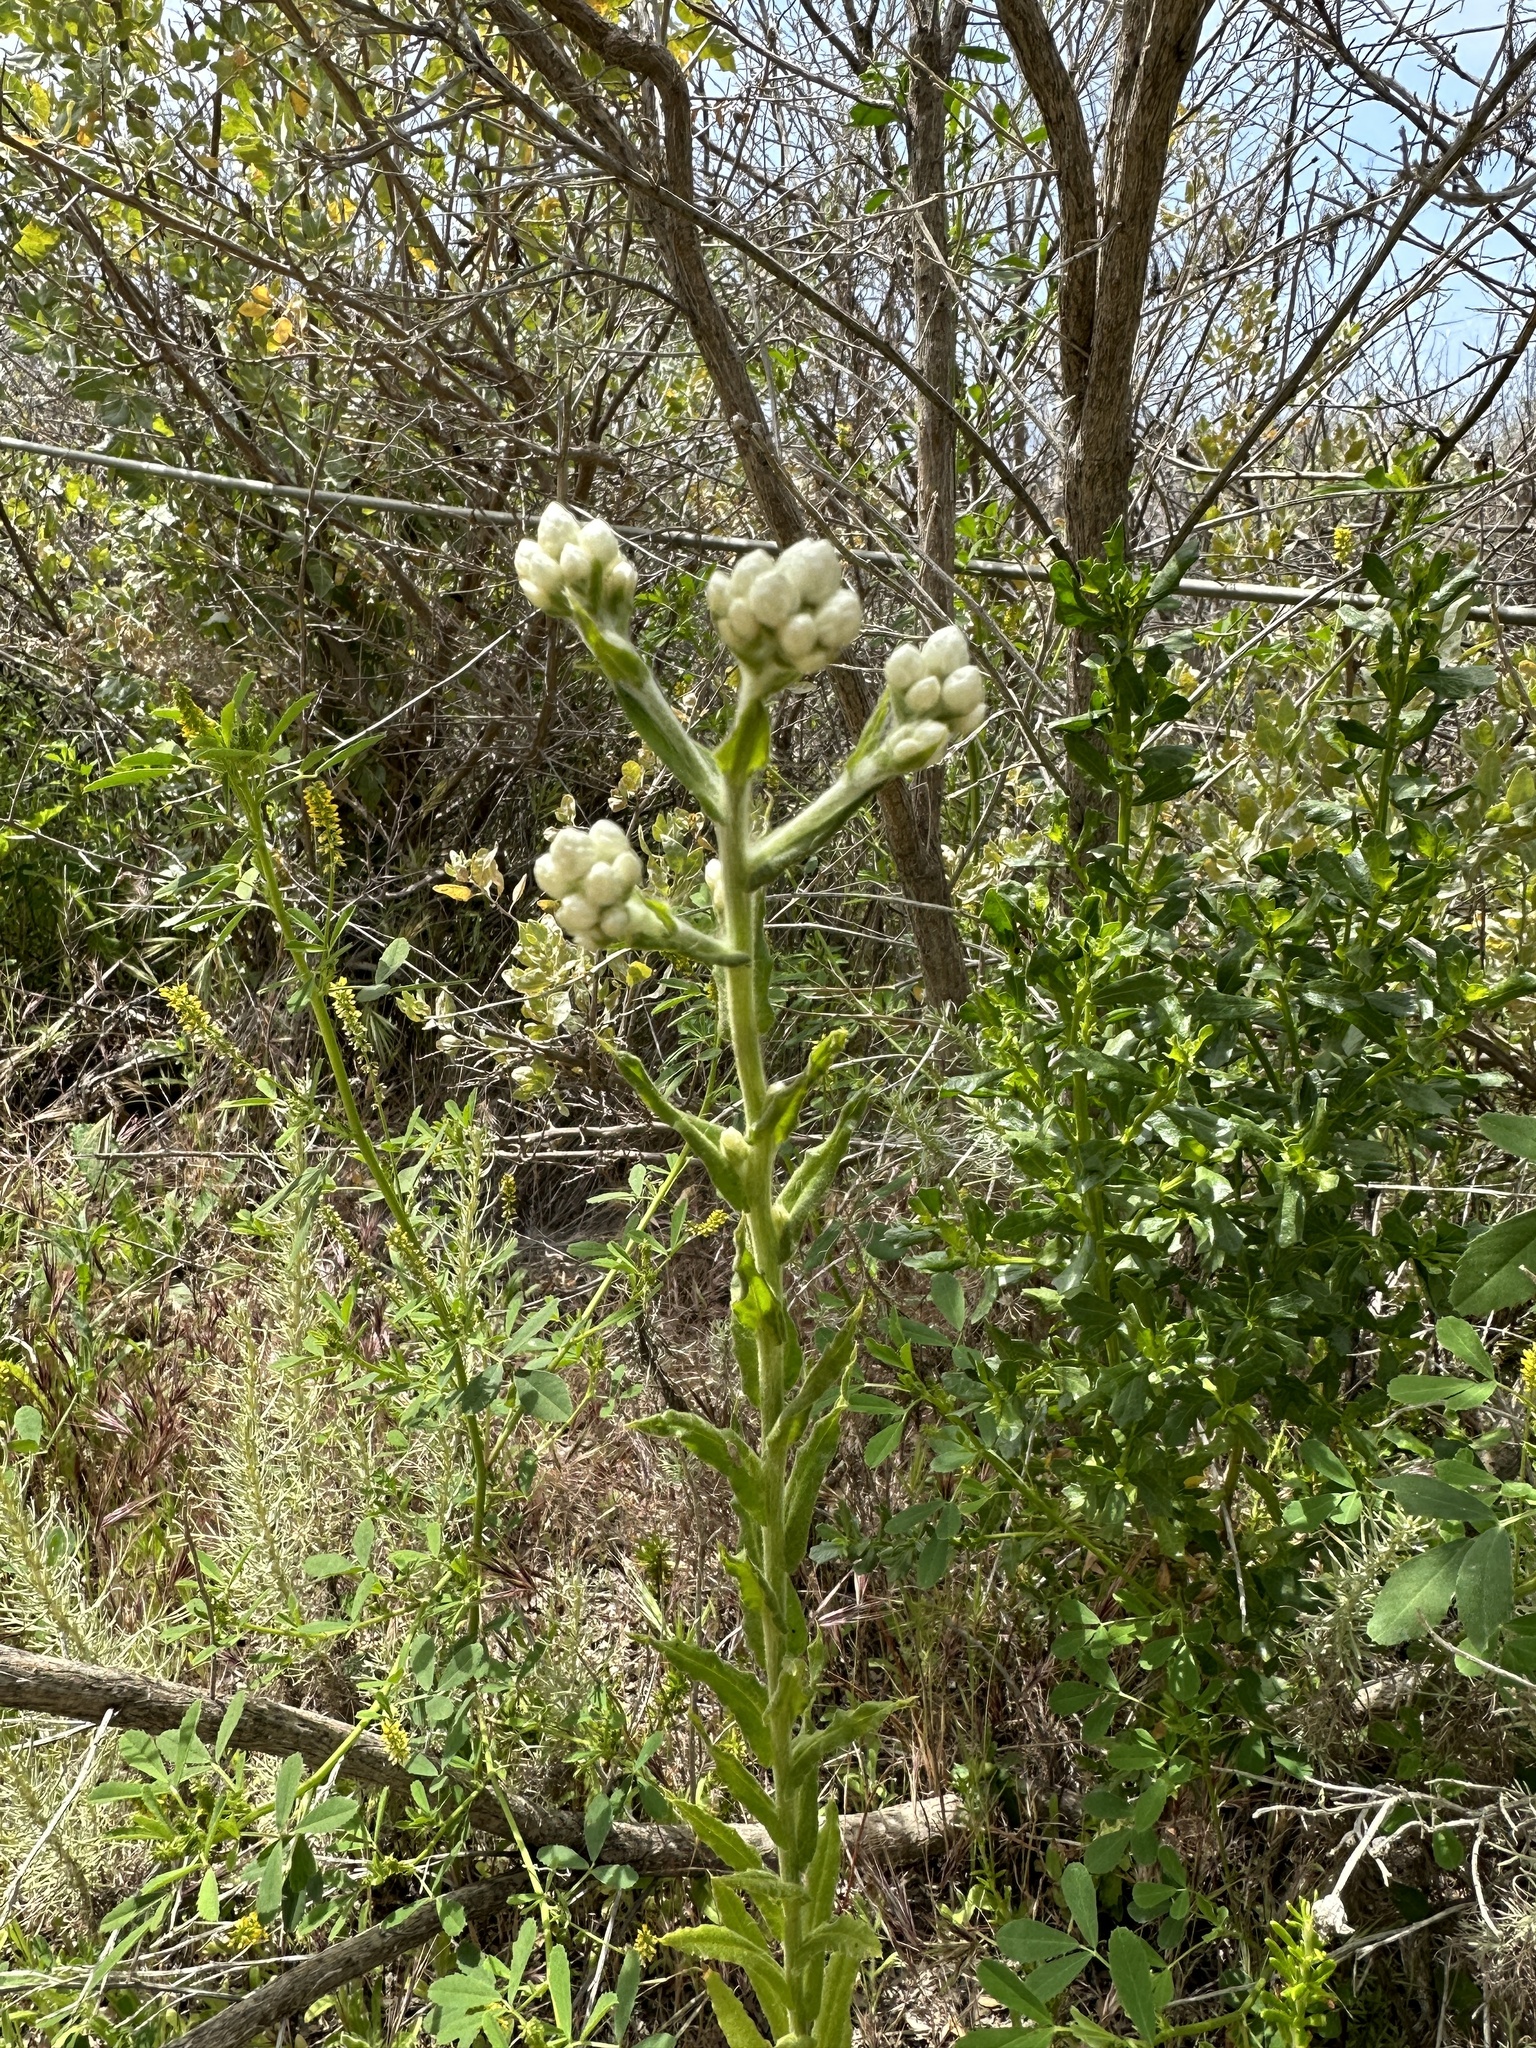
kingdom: Plantae
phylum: Tracheophyta
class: Magnoliopsida
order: Asterales
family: Asteraceae
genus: Pseudognaphalium
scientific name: Pseudognaphalium californicum
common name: California rabbit-tobacco
